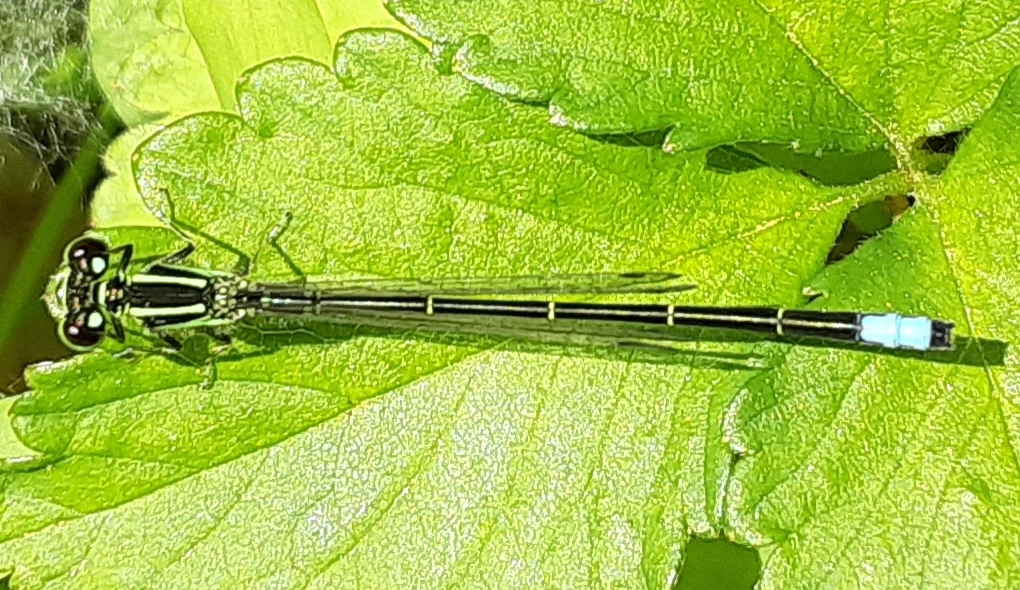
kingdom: Animalia
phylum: Arthropoda
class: Insecta
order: Odonata
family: Coenagrionidae
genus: Ischnura
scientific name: Ischnura verticalis
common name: Eastern forktail
